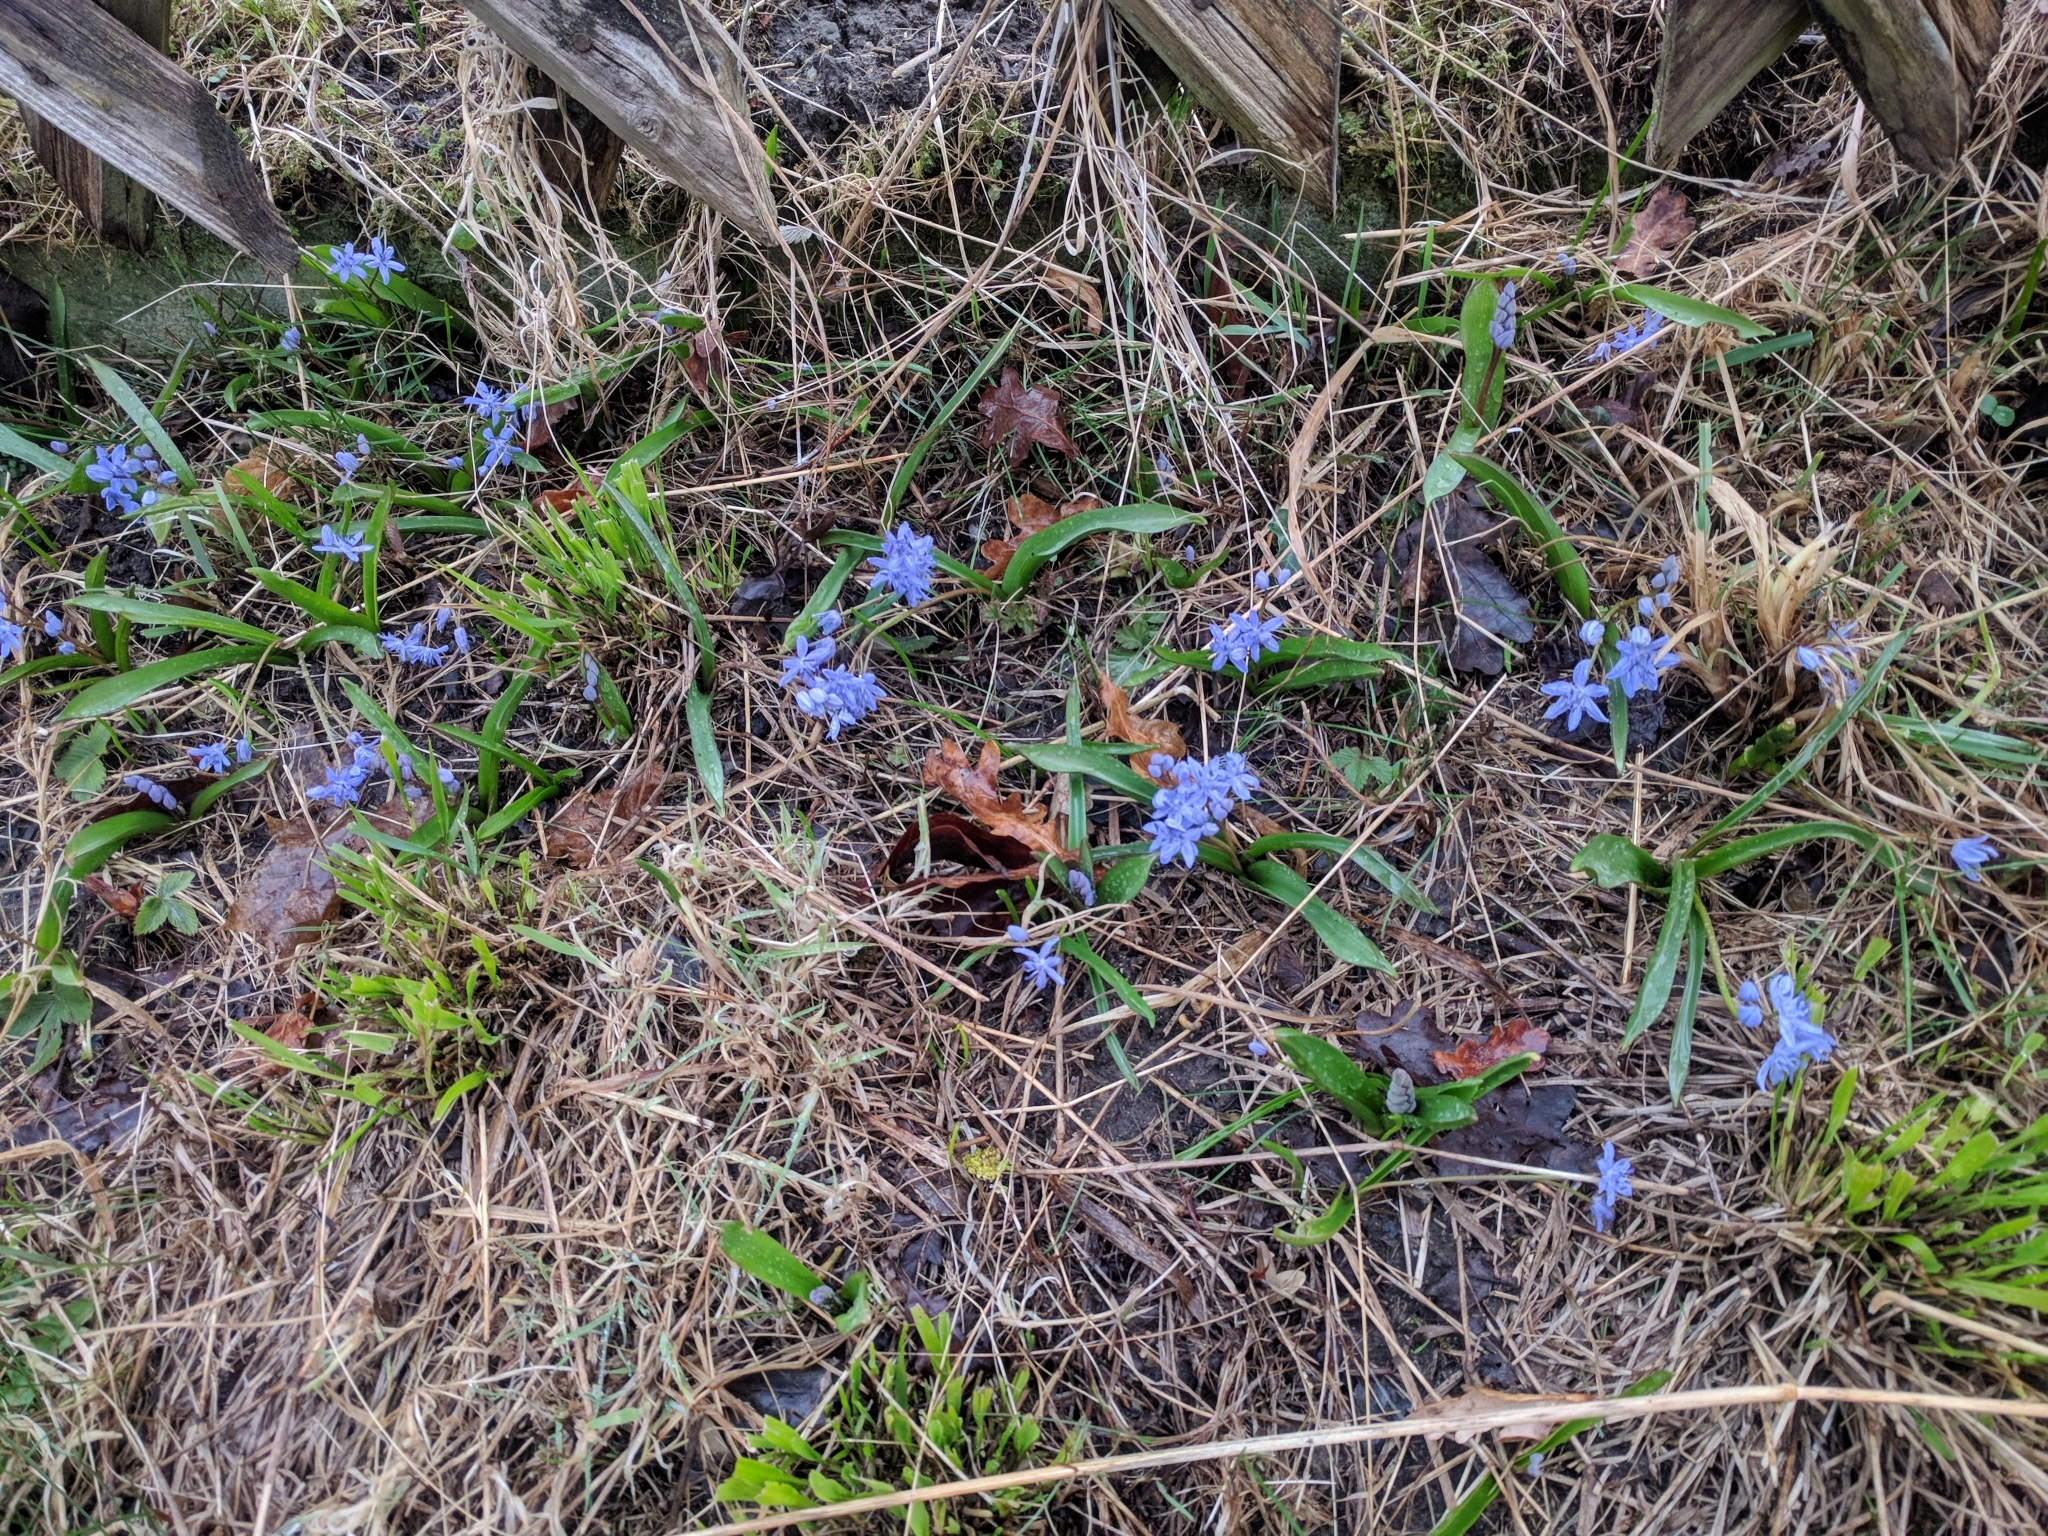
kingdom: Plantae
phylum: Tracheophyta
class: Liliopsida
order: Asparagales
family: Asparagaceae
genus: Scilla
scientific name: Scilla bifolia
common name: Alpine squill
